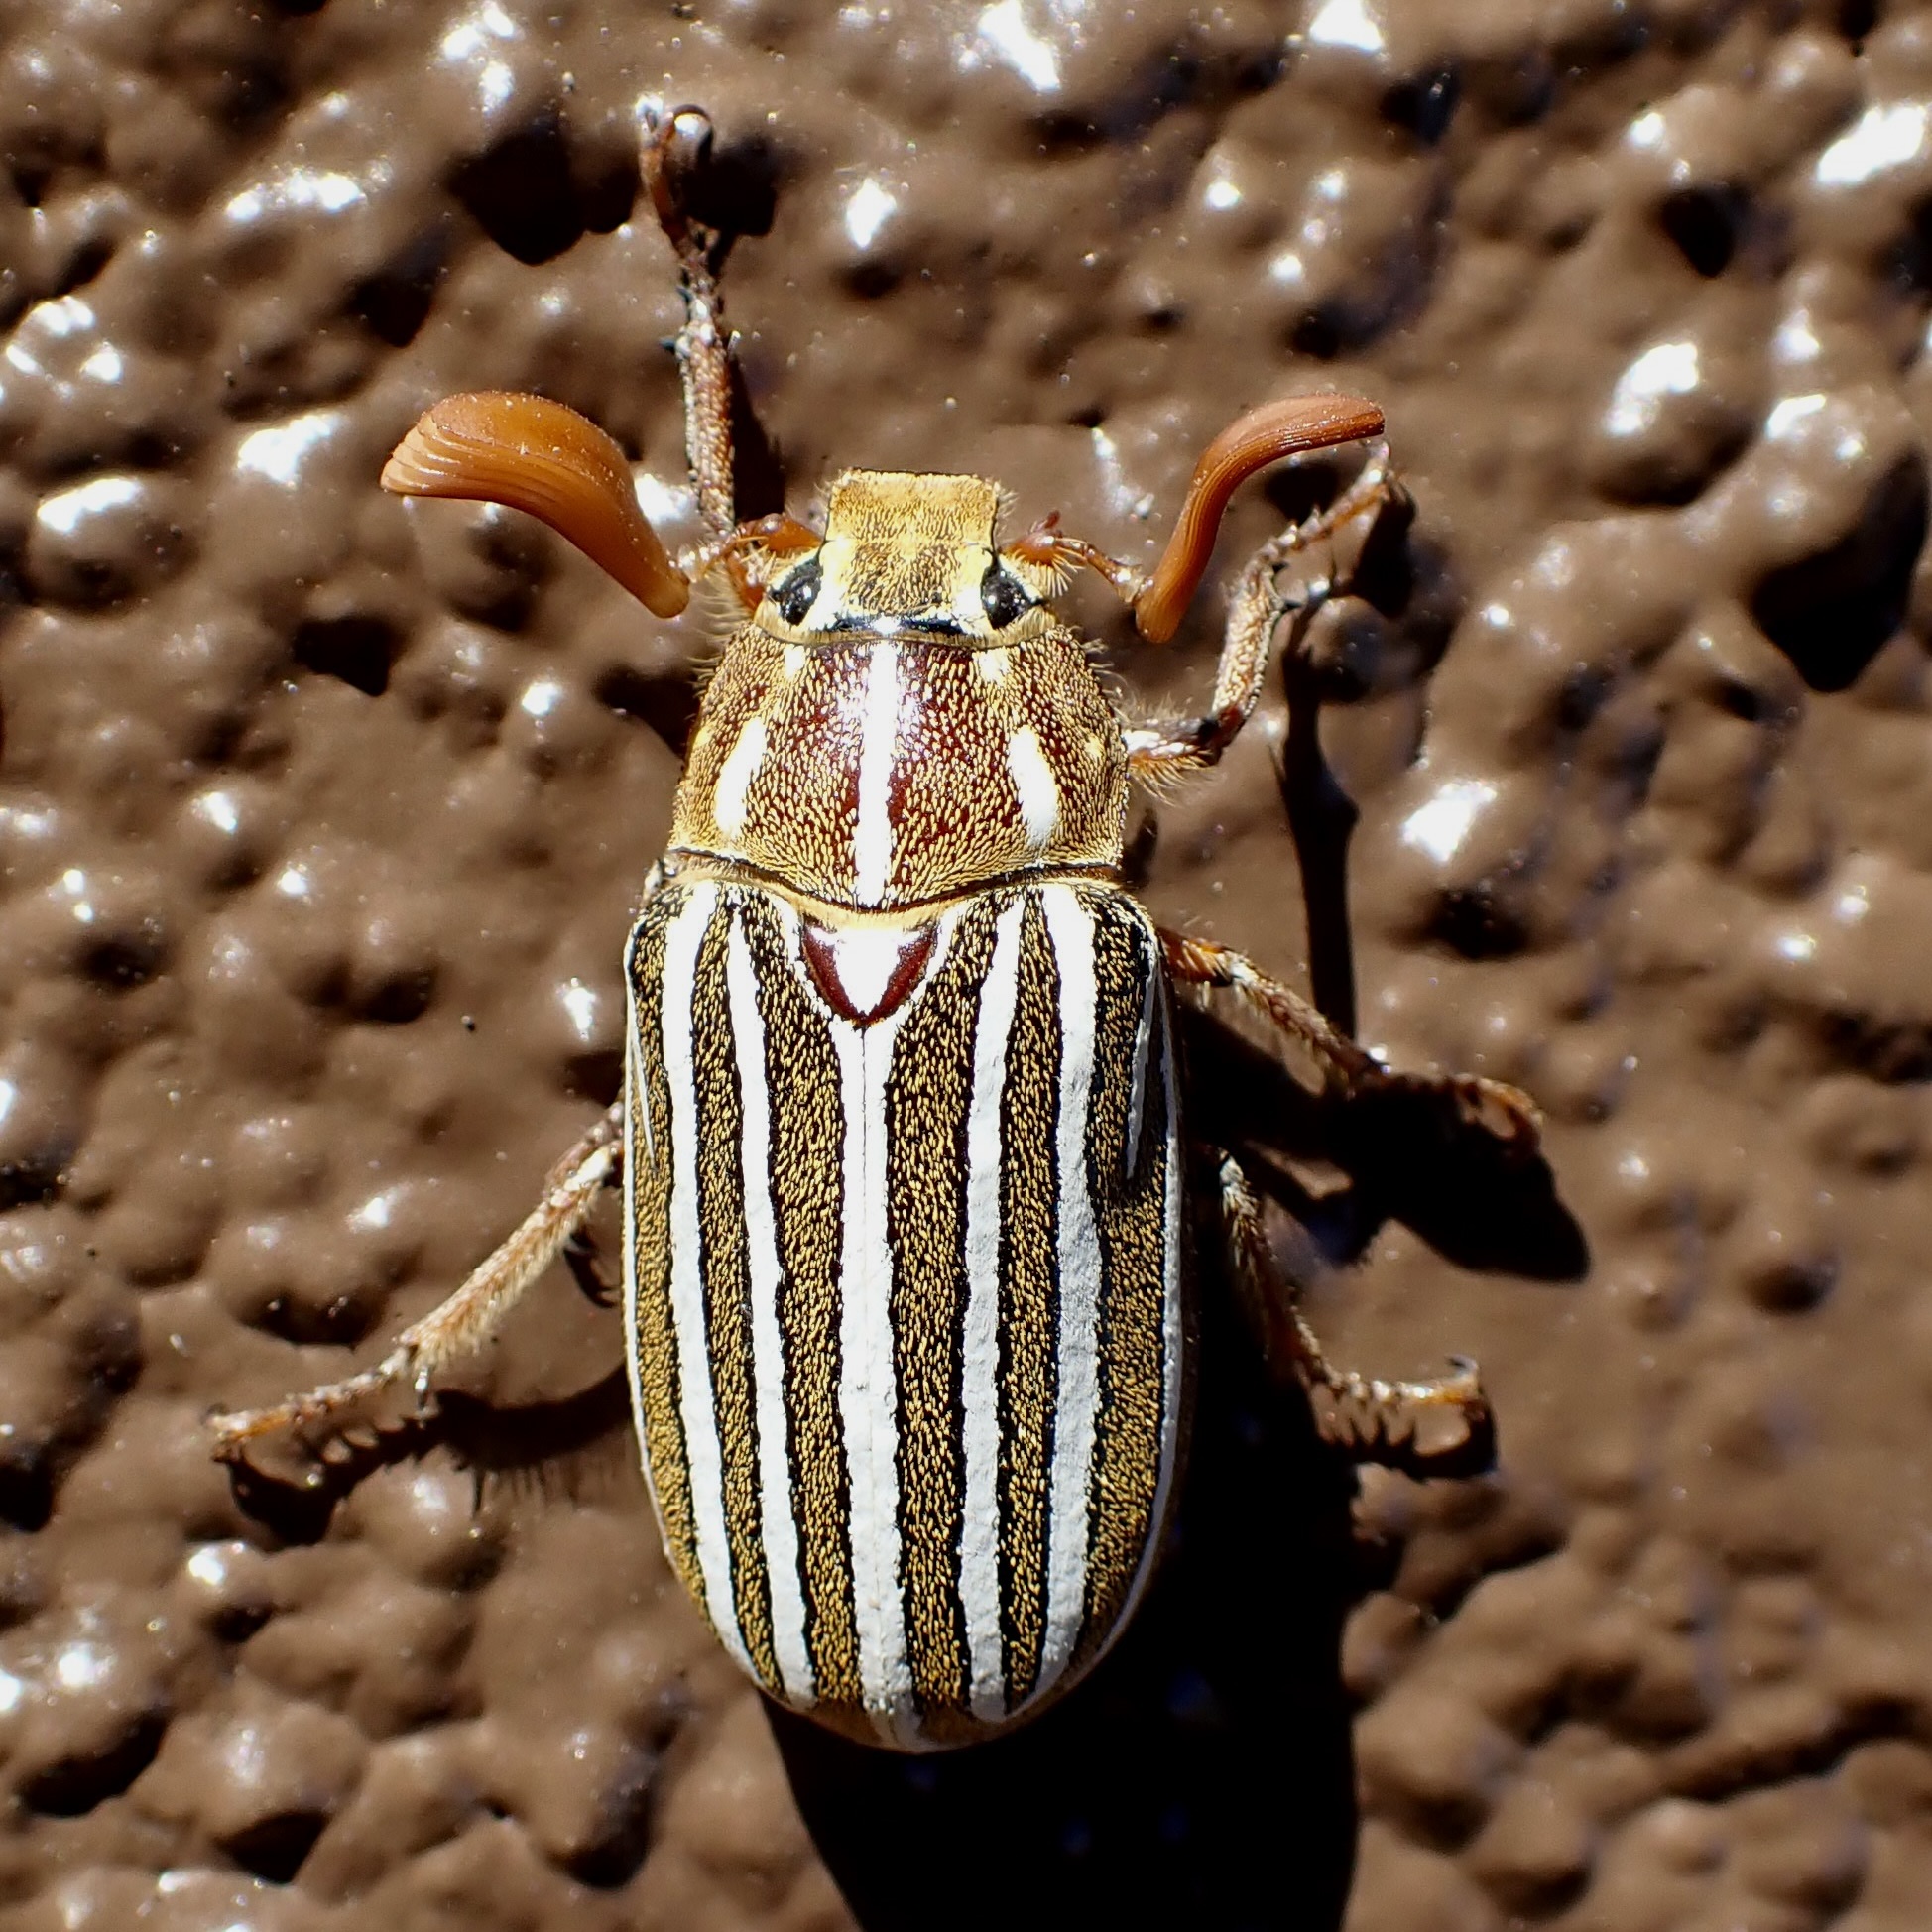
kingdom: Animalia
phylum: Arthropoda
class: Insecta
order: Coleoptera
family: Scarabaeidae
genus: Polyphylla
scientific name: Polyphylla decemlineata
